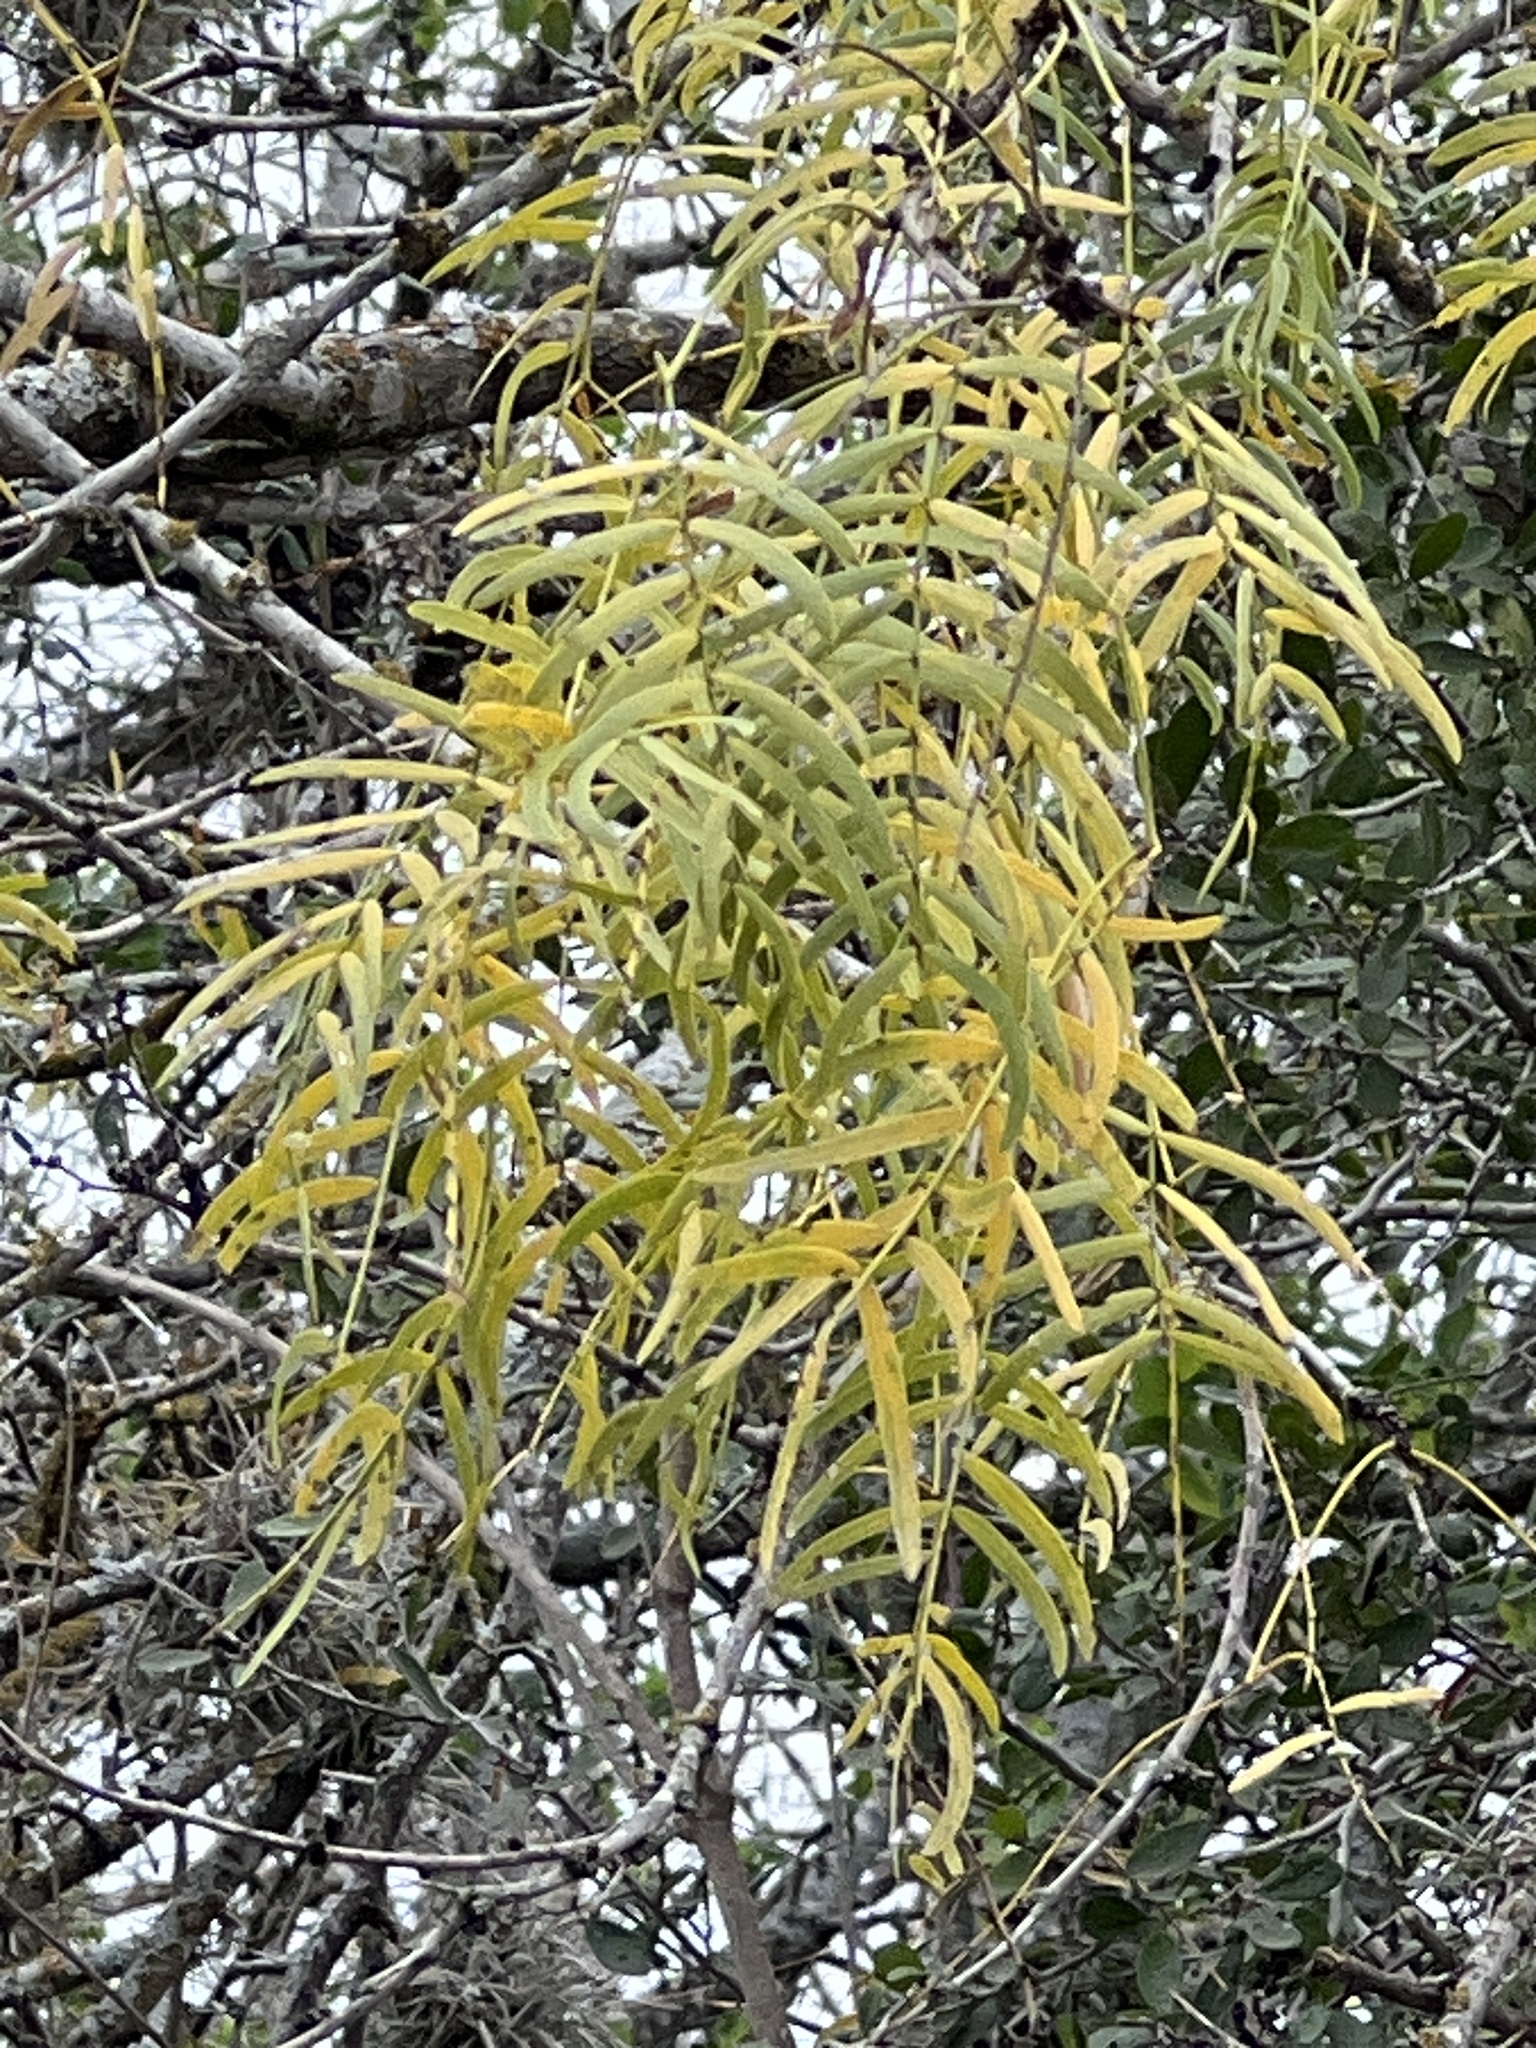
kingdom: Plantae
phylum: Tracheophyta
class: Magnoliopsida
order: Fabales
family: Fabaceae
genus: Prosopis
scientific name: Prosopis glandulosa
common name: Honey mesquite
